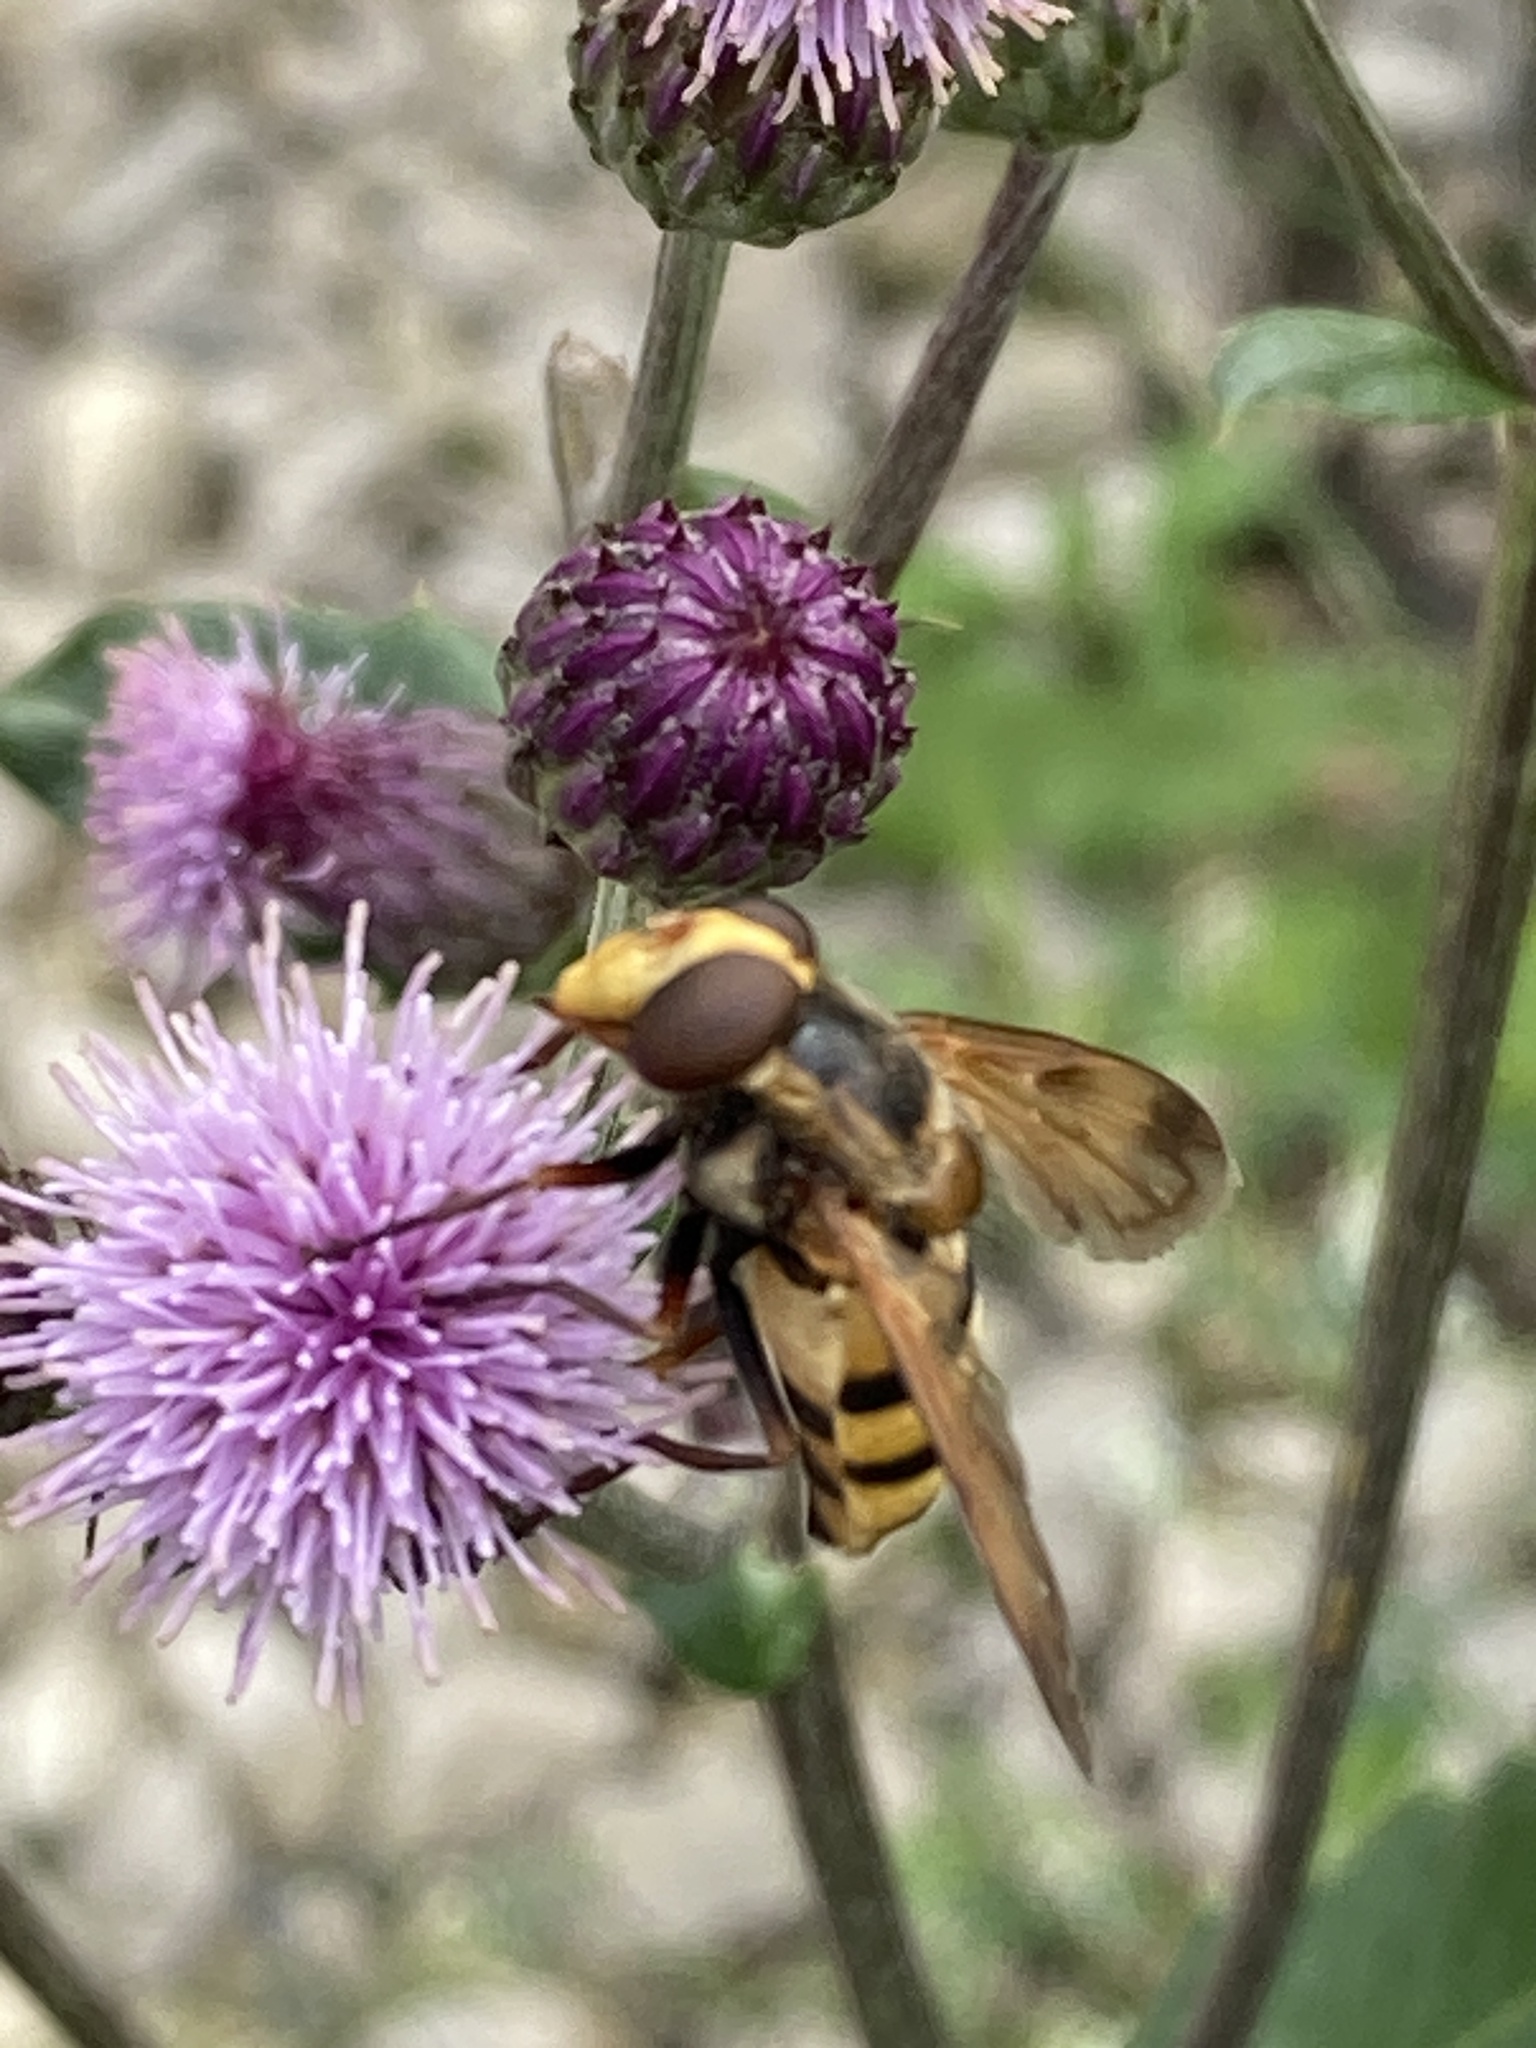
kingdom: Animalia
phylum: Arthropoda
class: Insecta
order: Diptera
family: Syrphidae
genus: Volucella
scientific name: Volucella inanis
